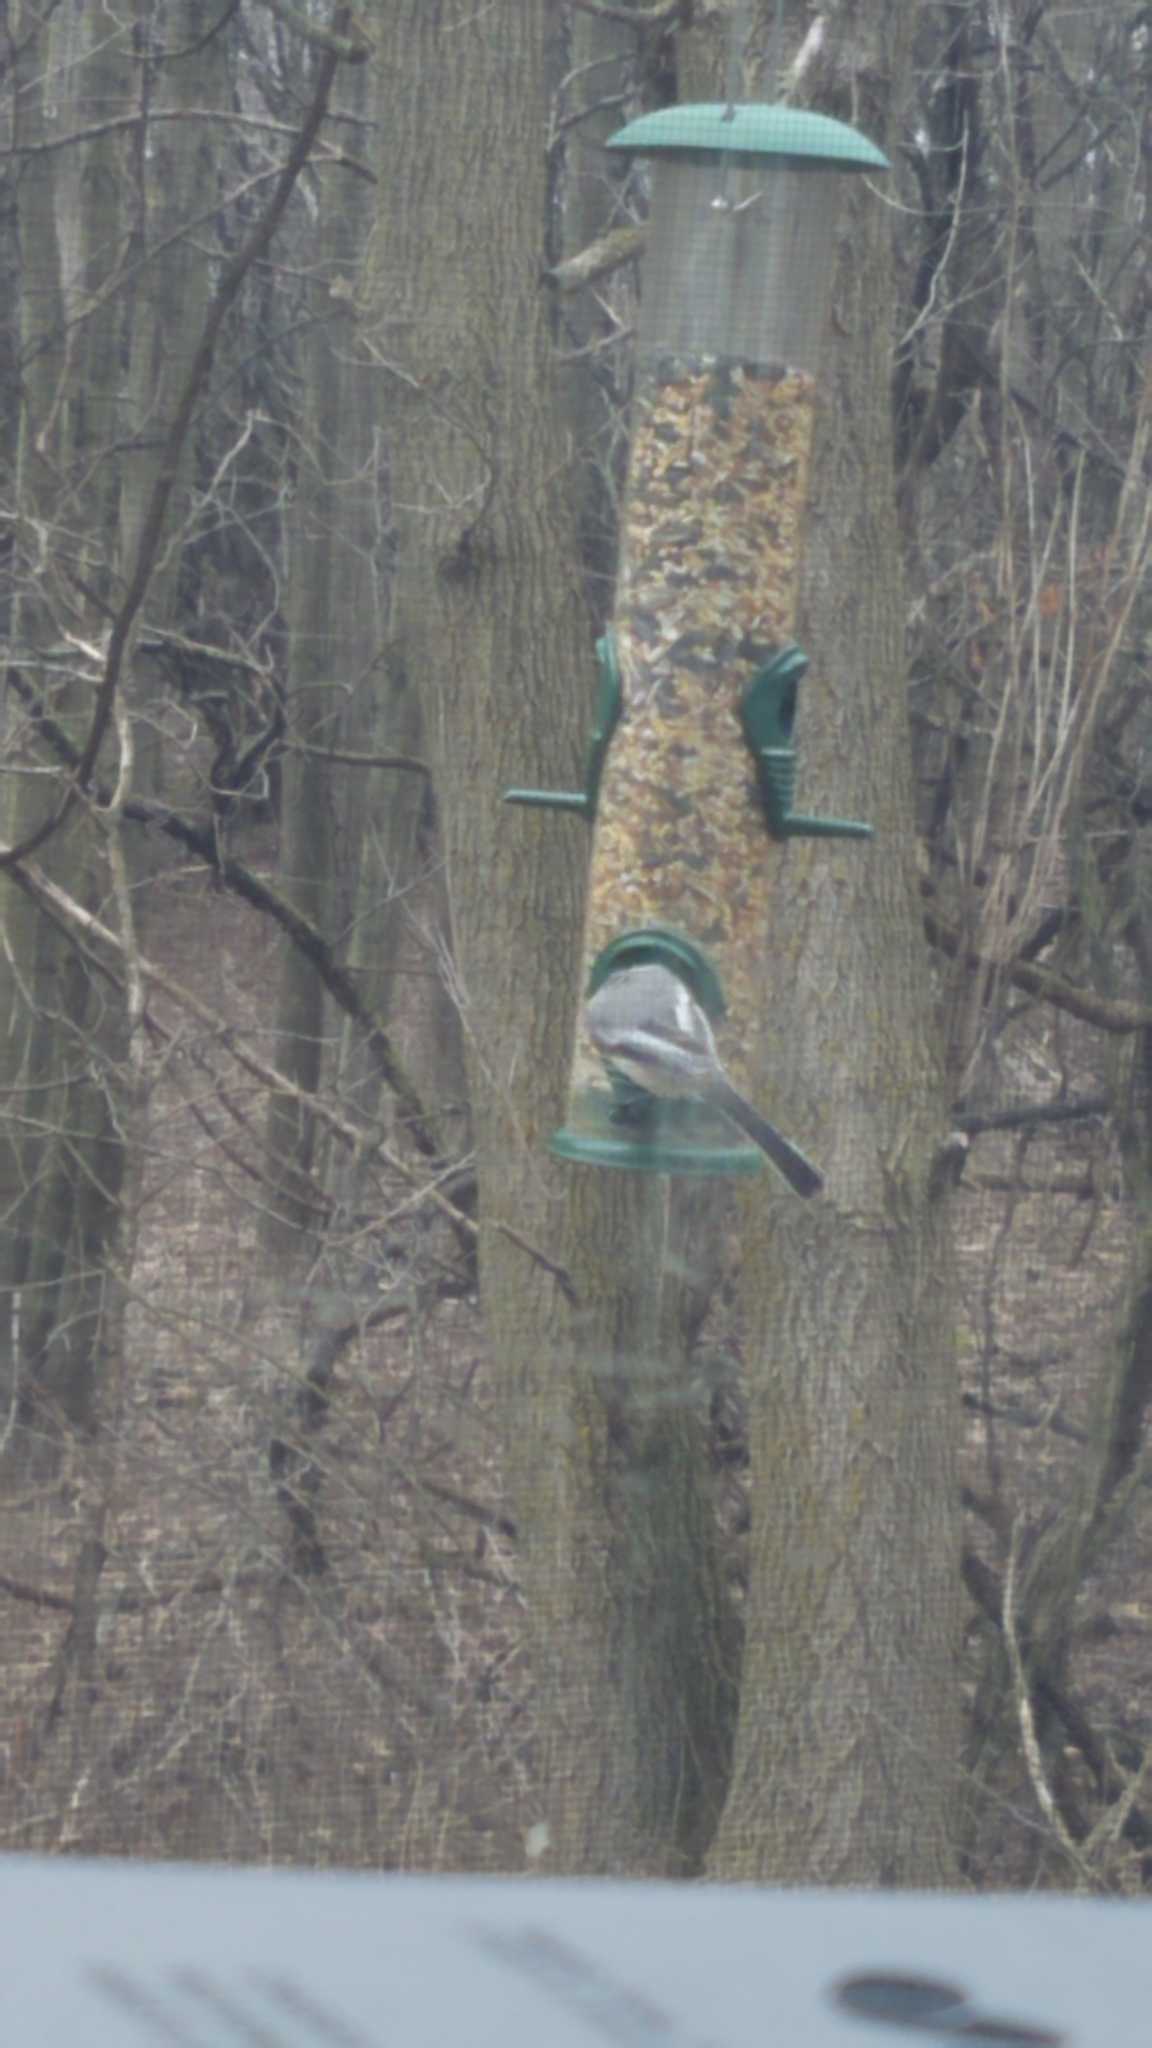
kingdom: Animalia
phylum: Chordata
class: Aves
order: Passeriformes
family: Paridae
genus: Poecile
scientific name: Poecile atricapillus
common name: Black-capped chickadee
